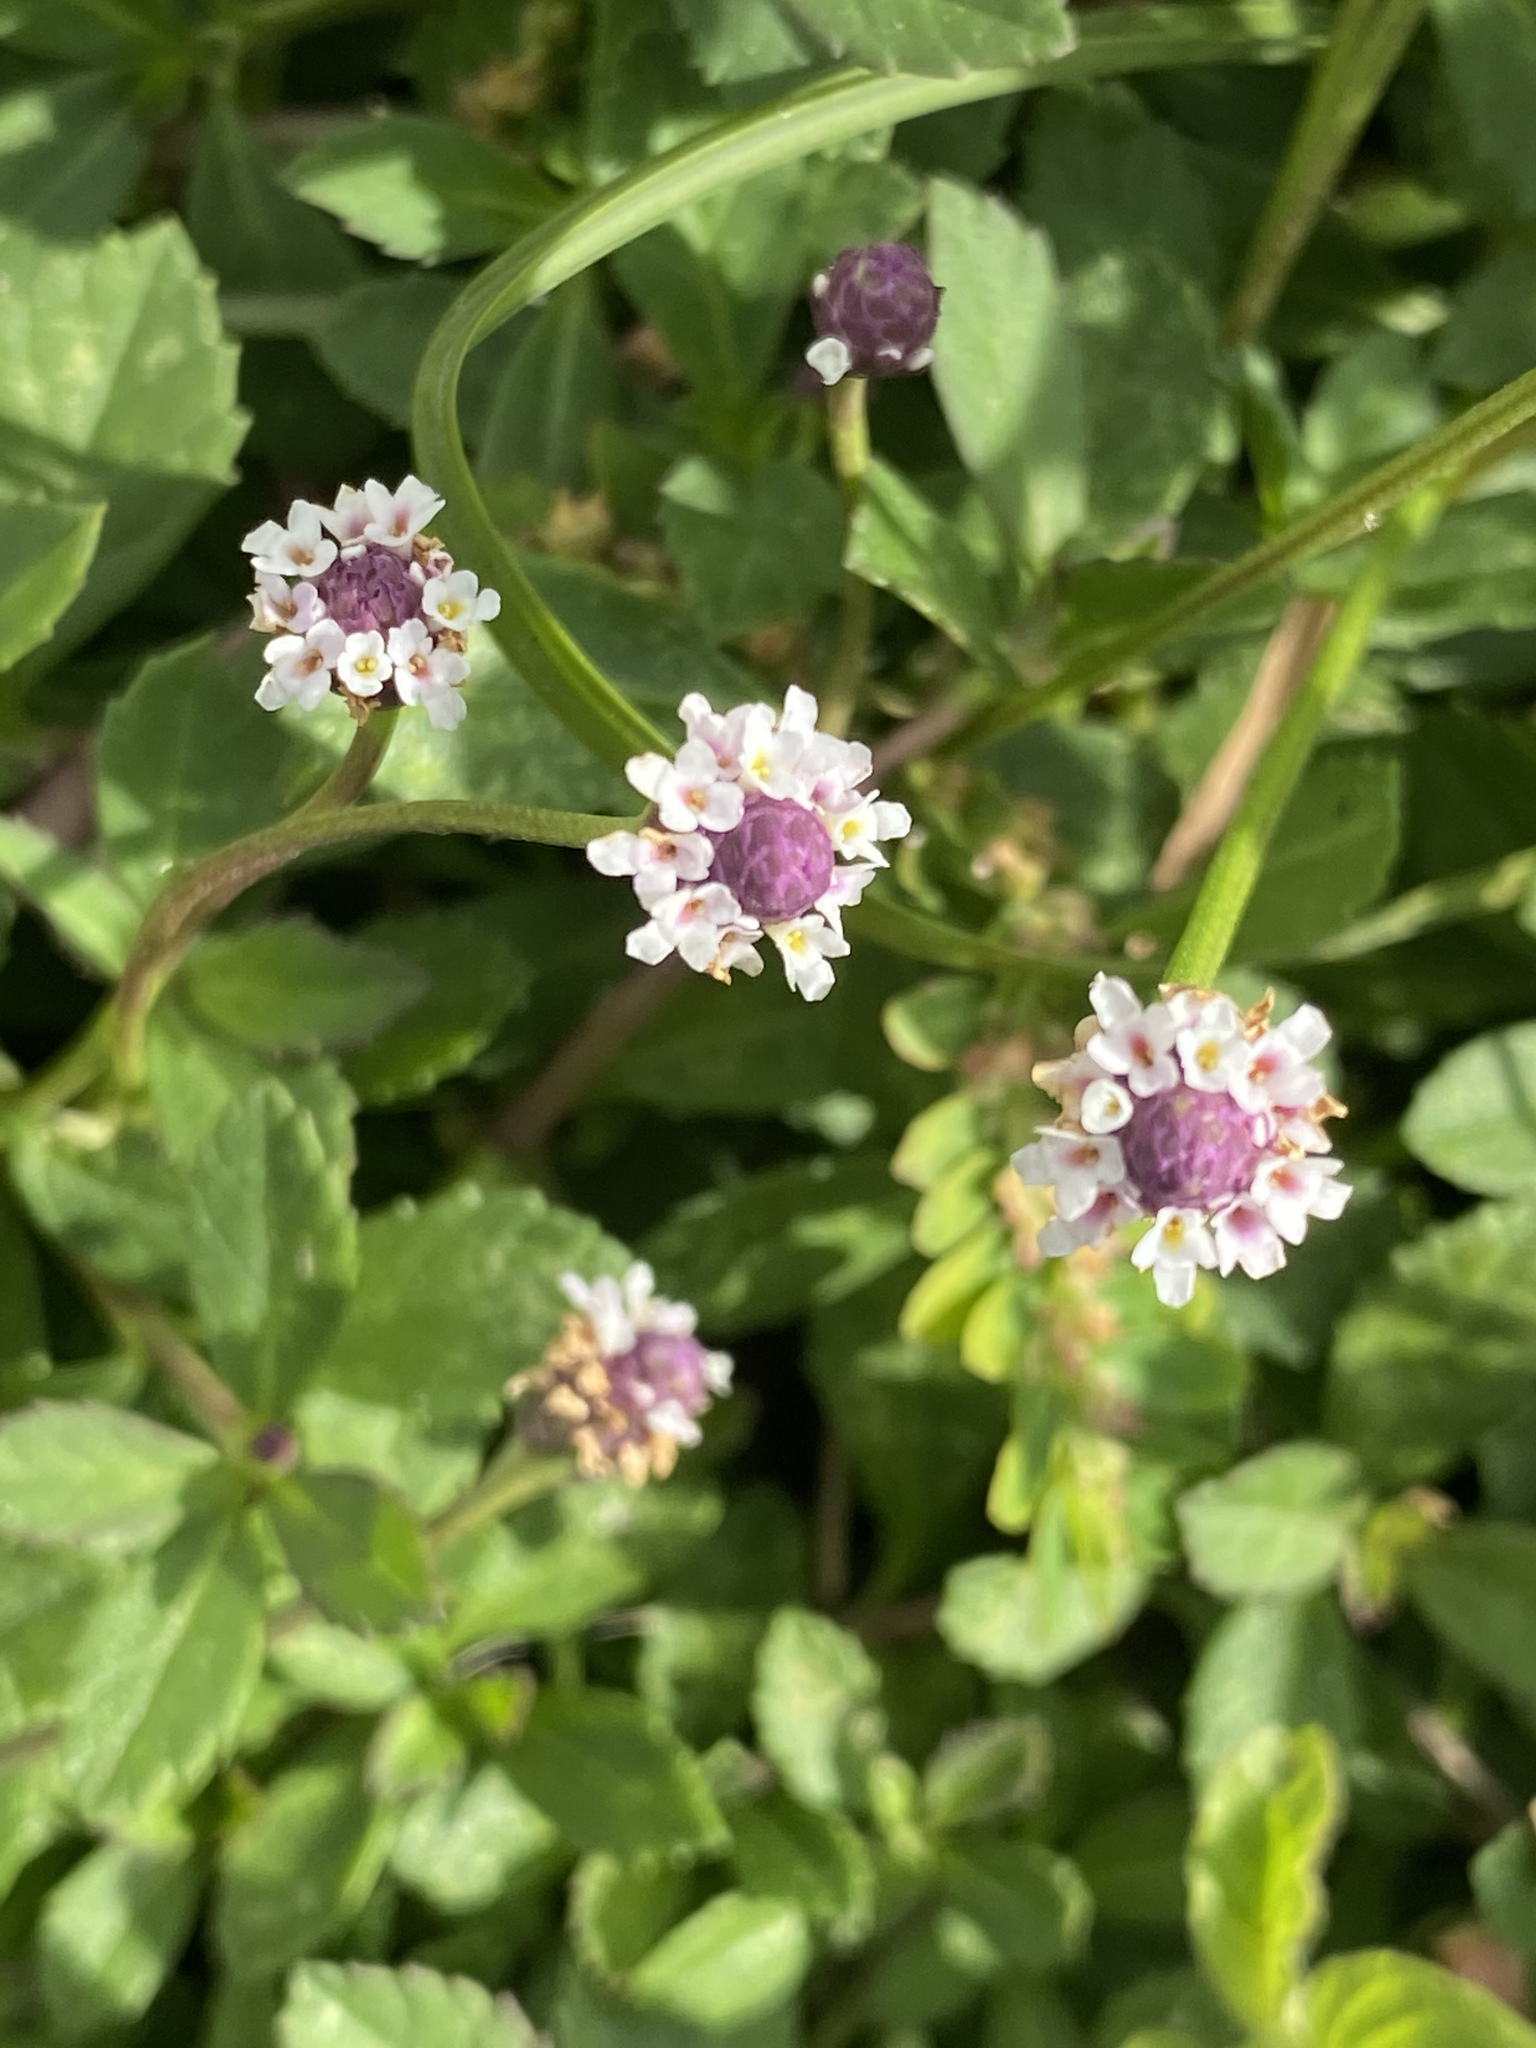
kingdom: Plantae
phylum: Tracheophyta
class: Magnoliopsida
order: Lamiales
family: Verbenaceae
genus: Phyla
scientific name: Phyla nodiflora
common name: Frogfruit
